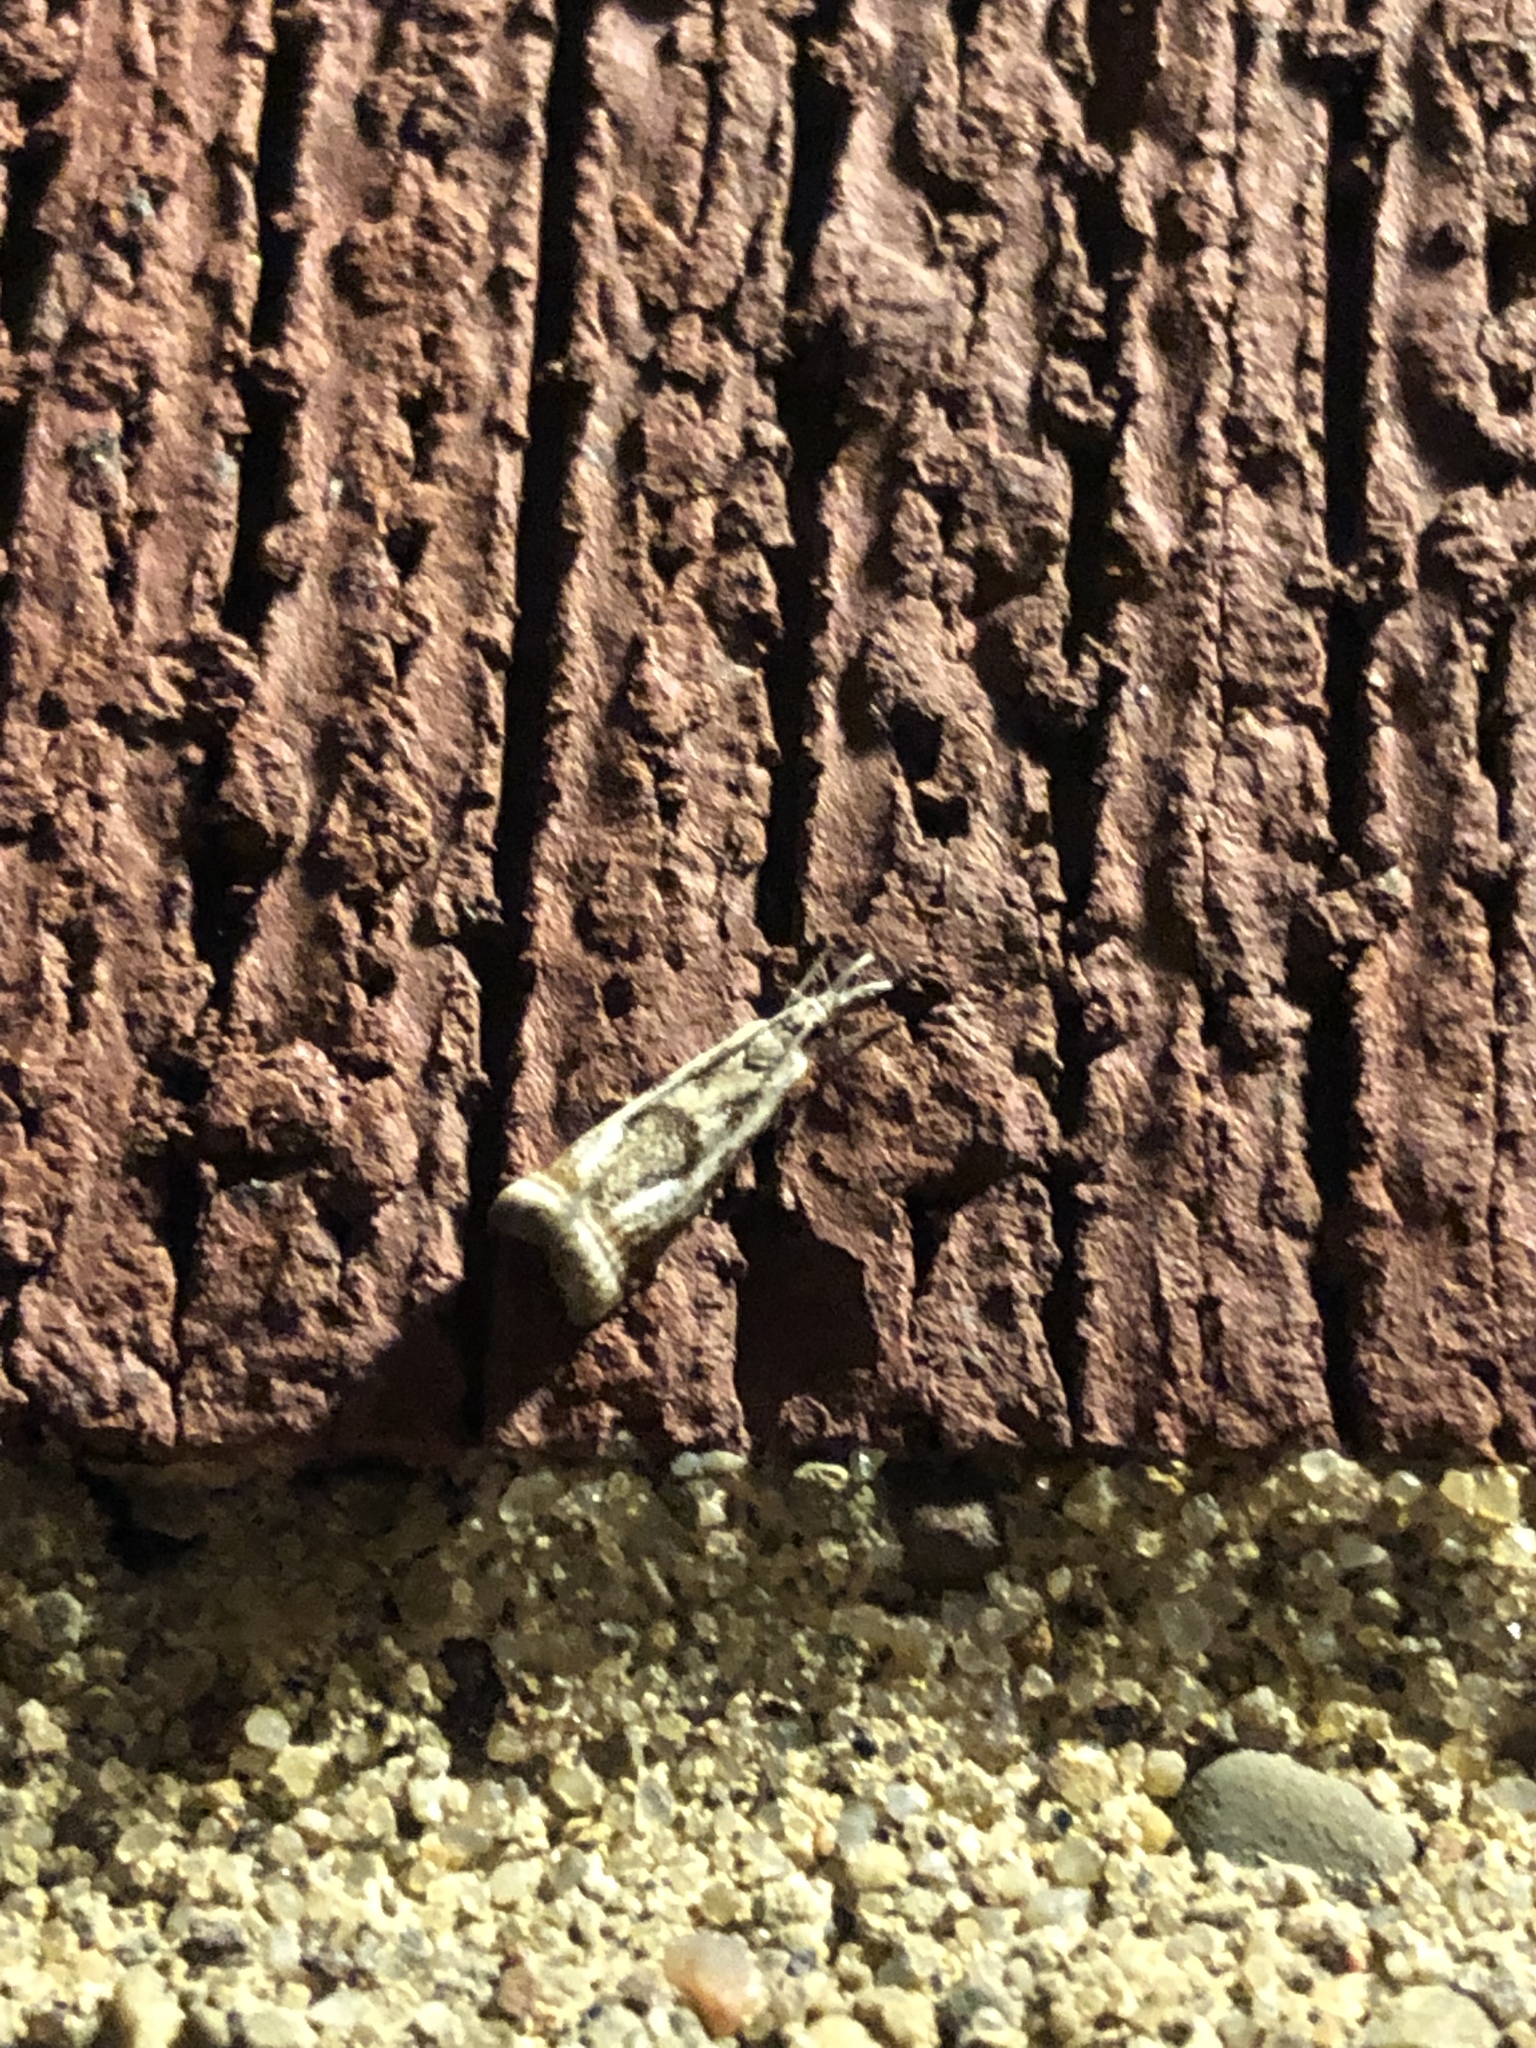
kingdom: Animalia
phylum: Arthropoda
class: Insecta
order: Lepidoptera
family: Crambidae
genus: Microcrambus
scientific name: Microcrambus elegans
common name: Elegant grass-veneer
